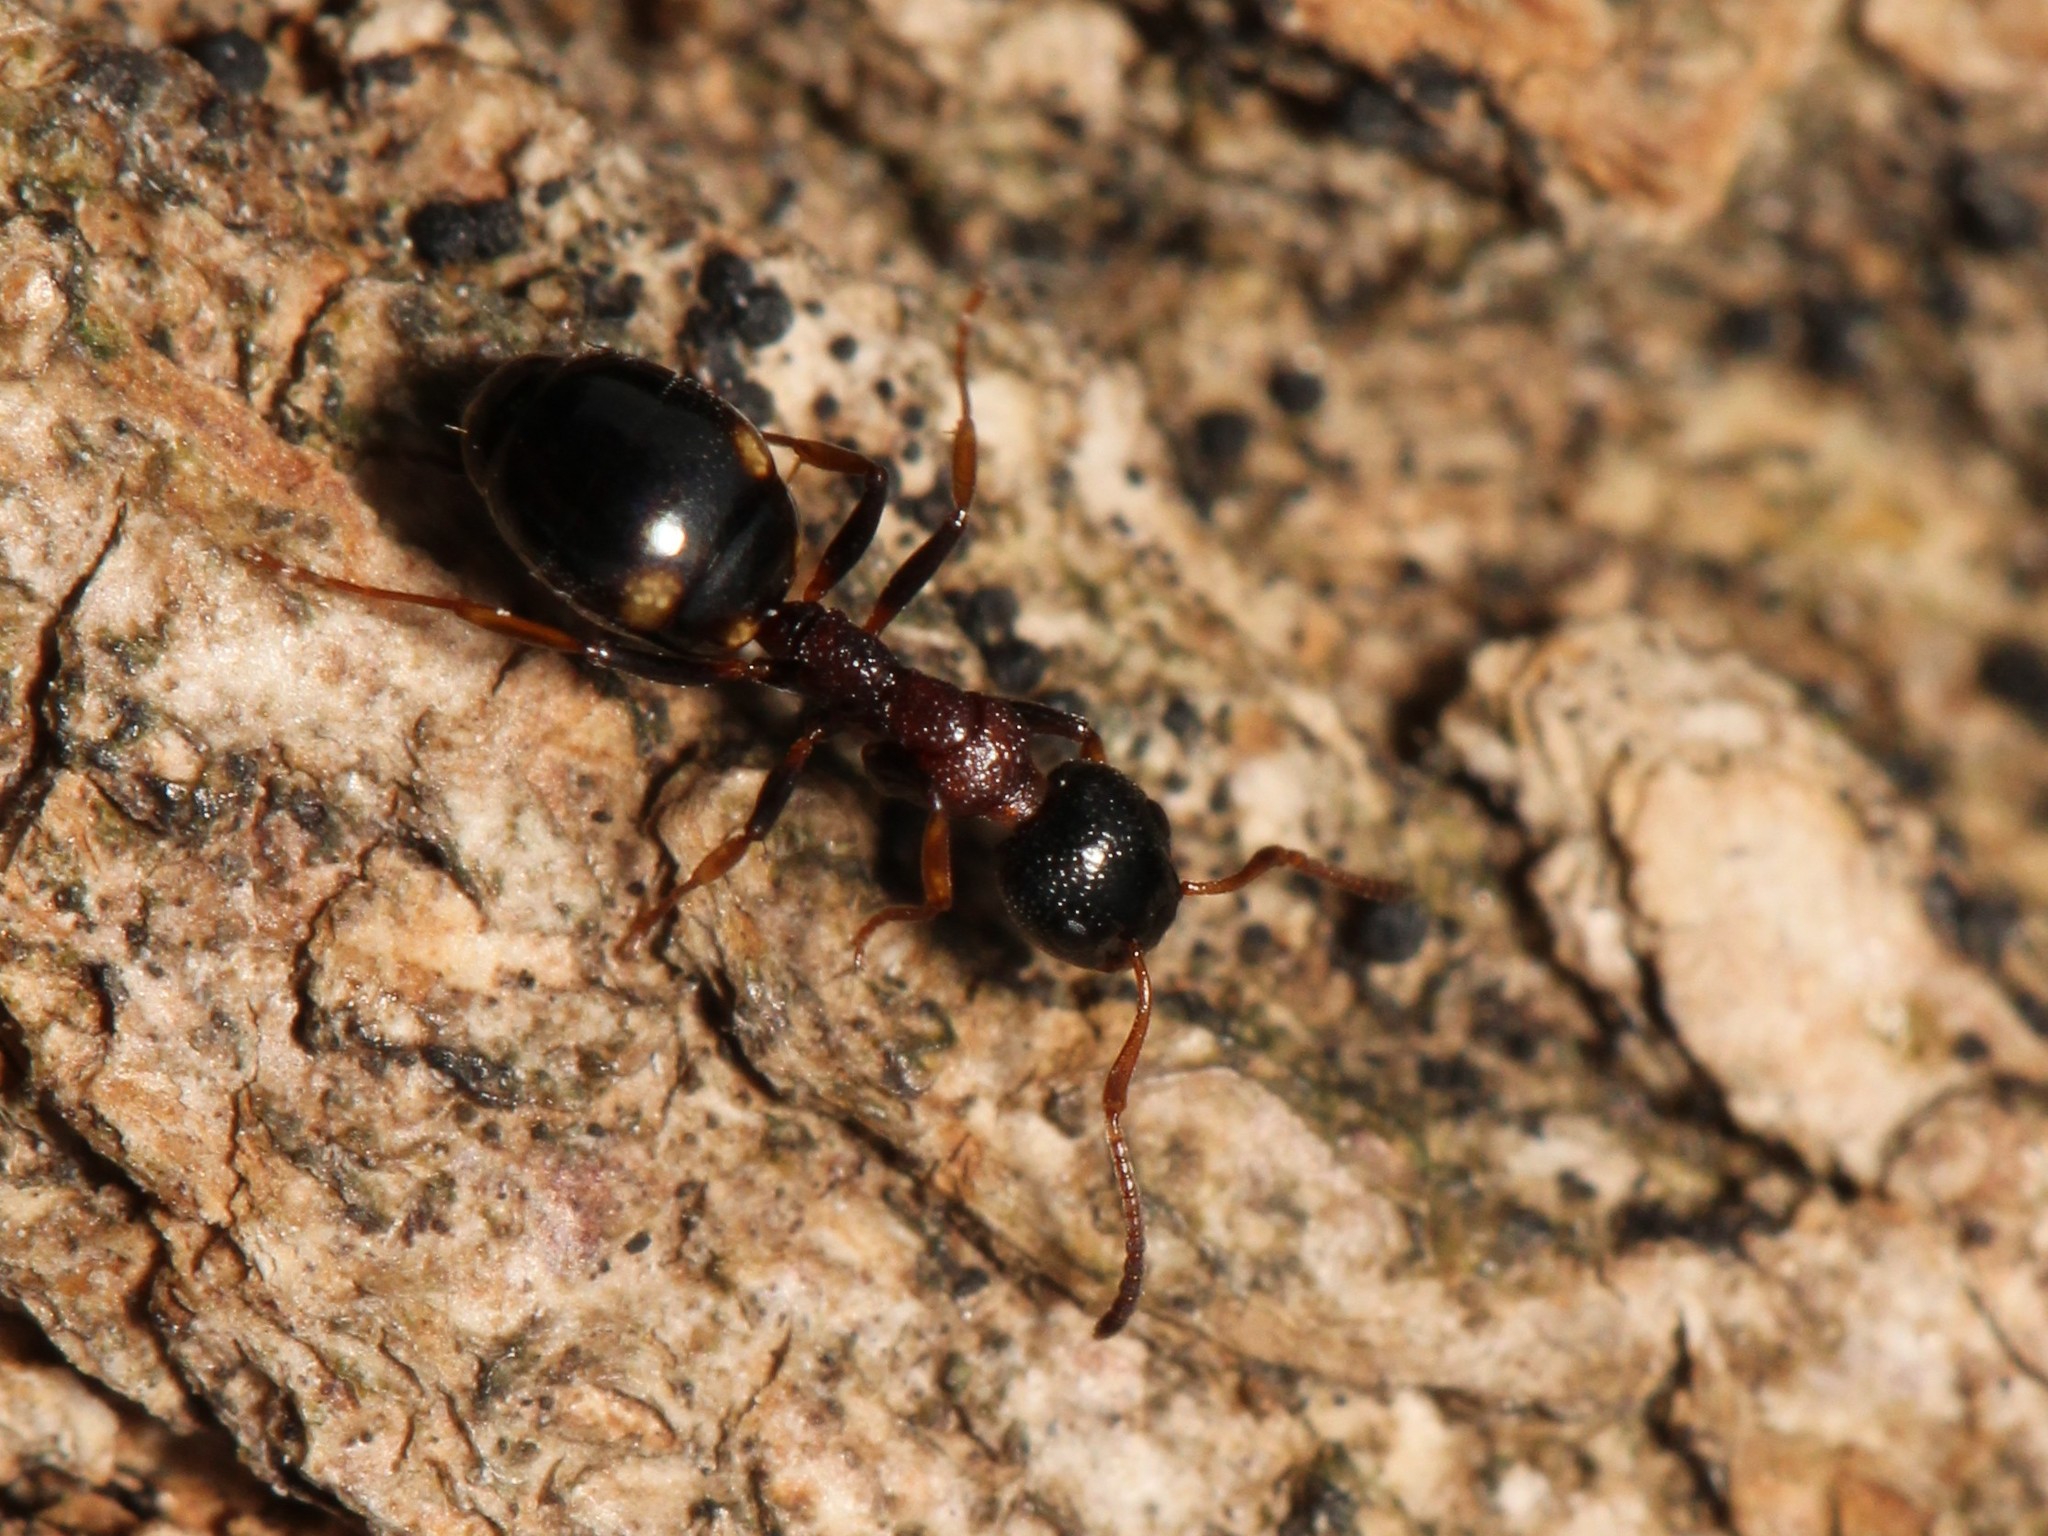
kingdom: Animalia
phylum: Arthropoda
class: Insecta
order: Hymenoptera
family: Formicidae
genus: Dolichoderus
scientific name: Dolichoderus quadripunctatus
